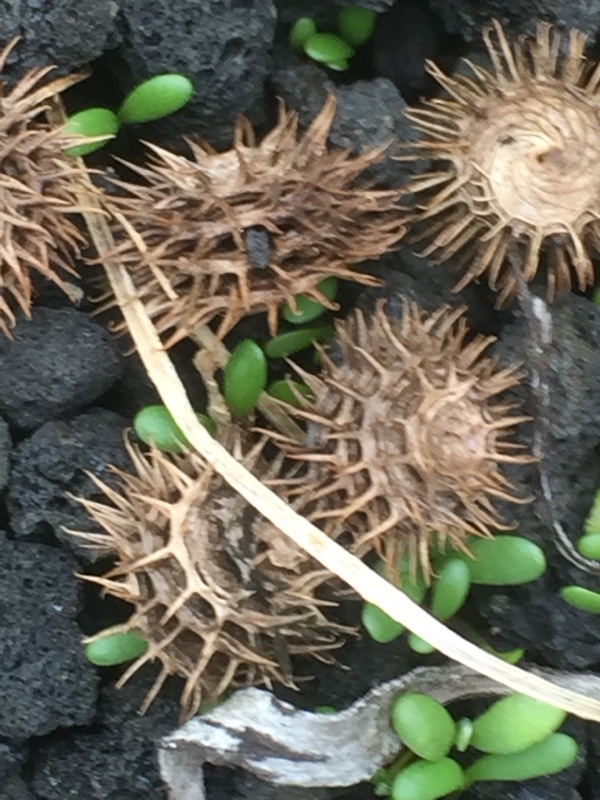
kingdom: Plantae
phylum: Tracheophyta
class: Magnoliopsida
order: Fabales
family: Fabaceae
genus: Medicago
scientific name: Medicago polymorpha
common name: Burclover
